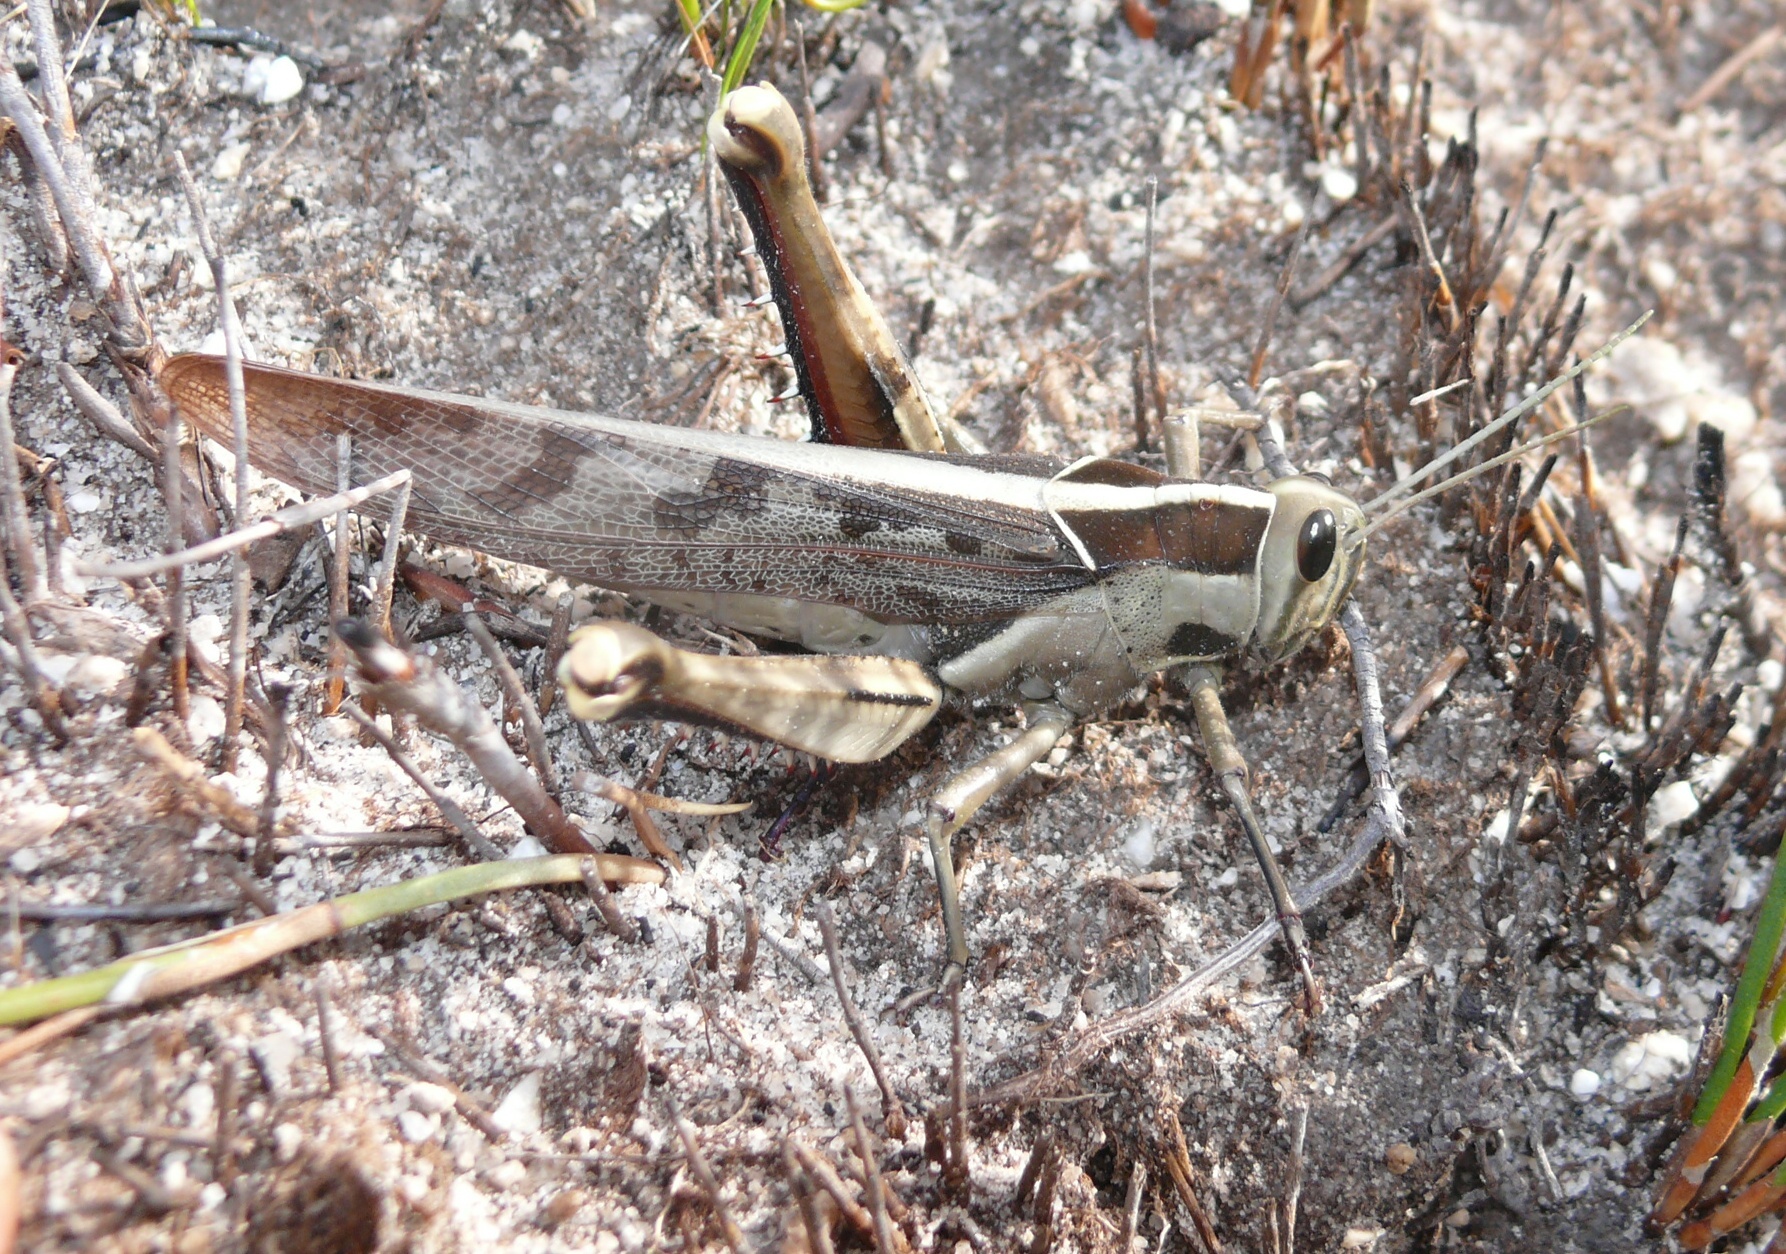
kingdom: Animalia
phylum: Arthropoda
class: Insecta
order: Orthoptera
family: Acrididae
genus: Acanthacris
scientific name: Acanthacris ruficornis
